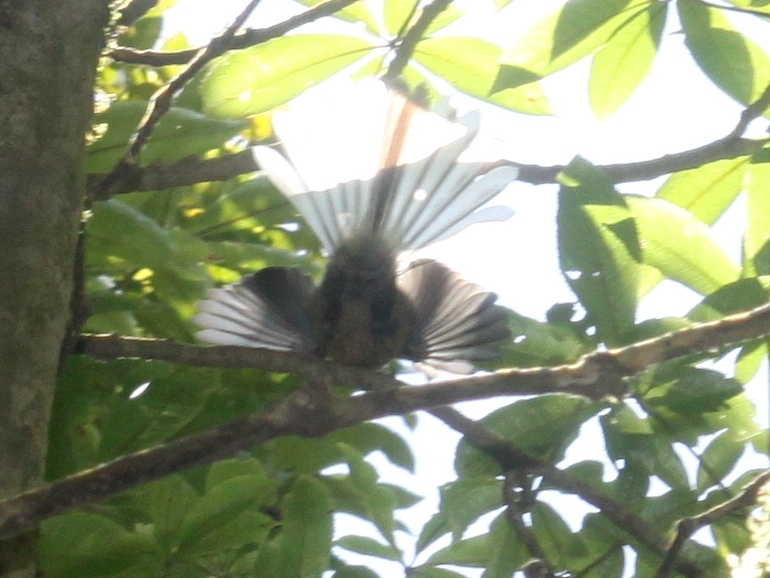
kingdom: Animalia
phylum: Chordata
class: Aves
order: Passeriformes
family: Rhipiduridae
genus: Rhipidura
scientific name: Rhipidura fuliginosa
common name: New zealand fantail
